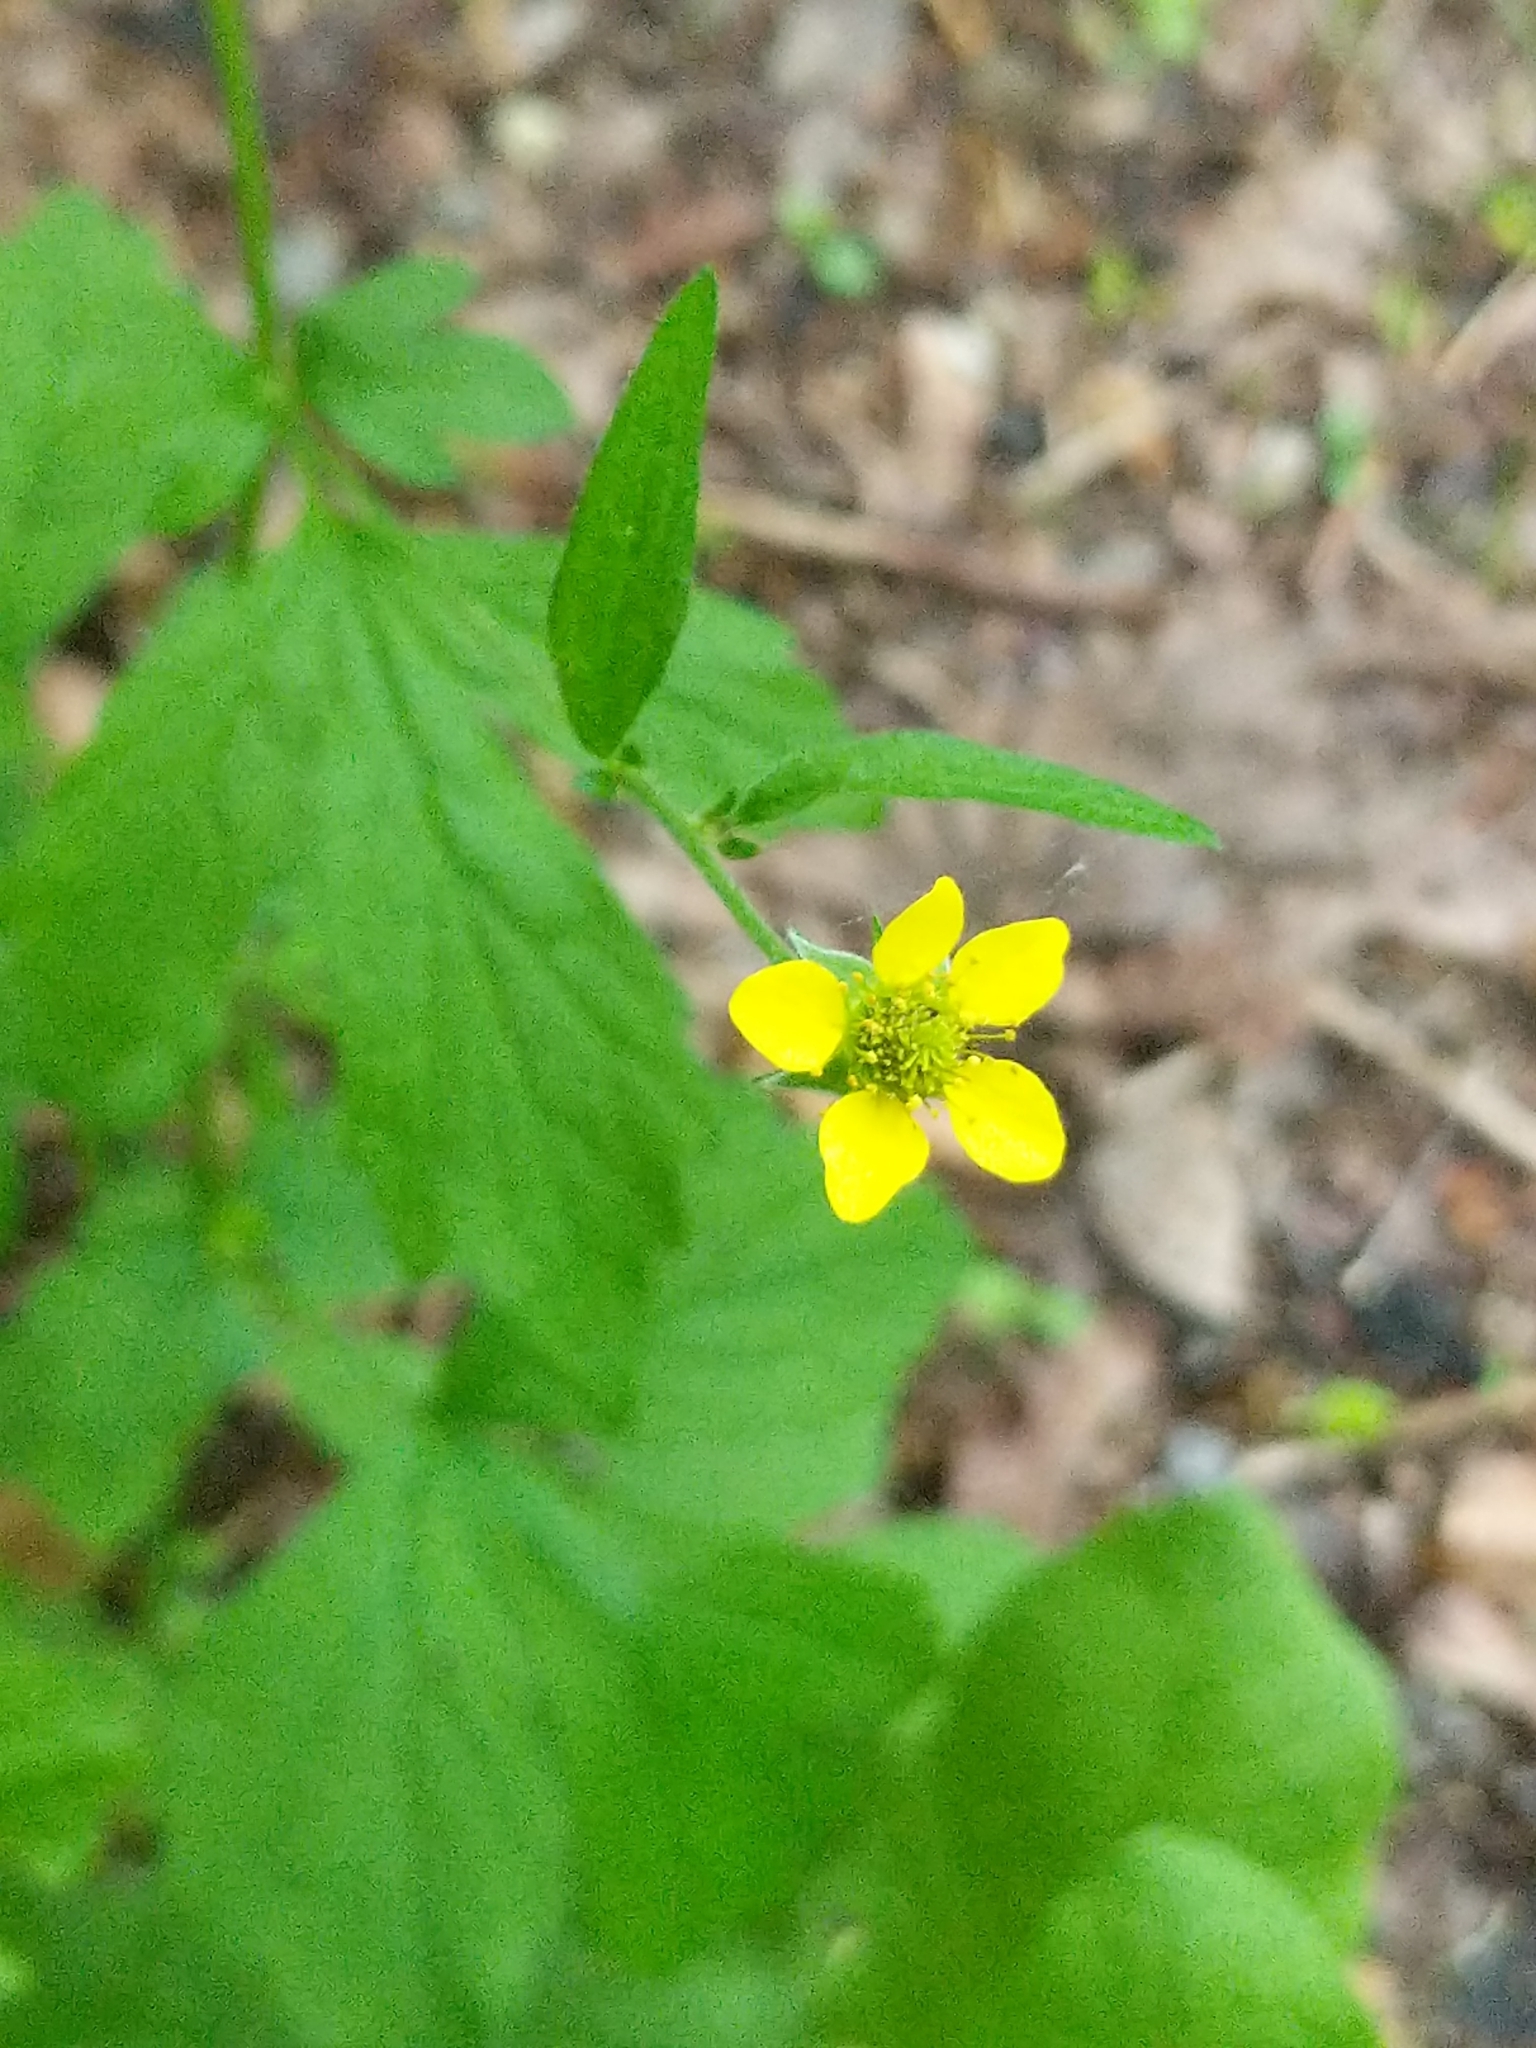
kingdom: Plantae
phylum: Tracheophyta
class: Magnoliopsida
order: Rosales
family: Rosaceae
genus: Geum
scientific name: Geum urbanum
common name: Wood avens
